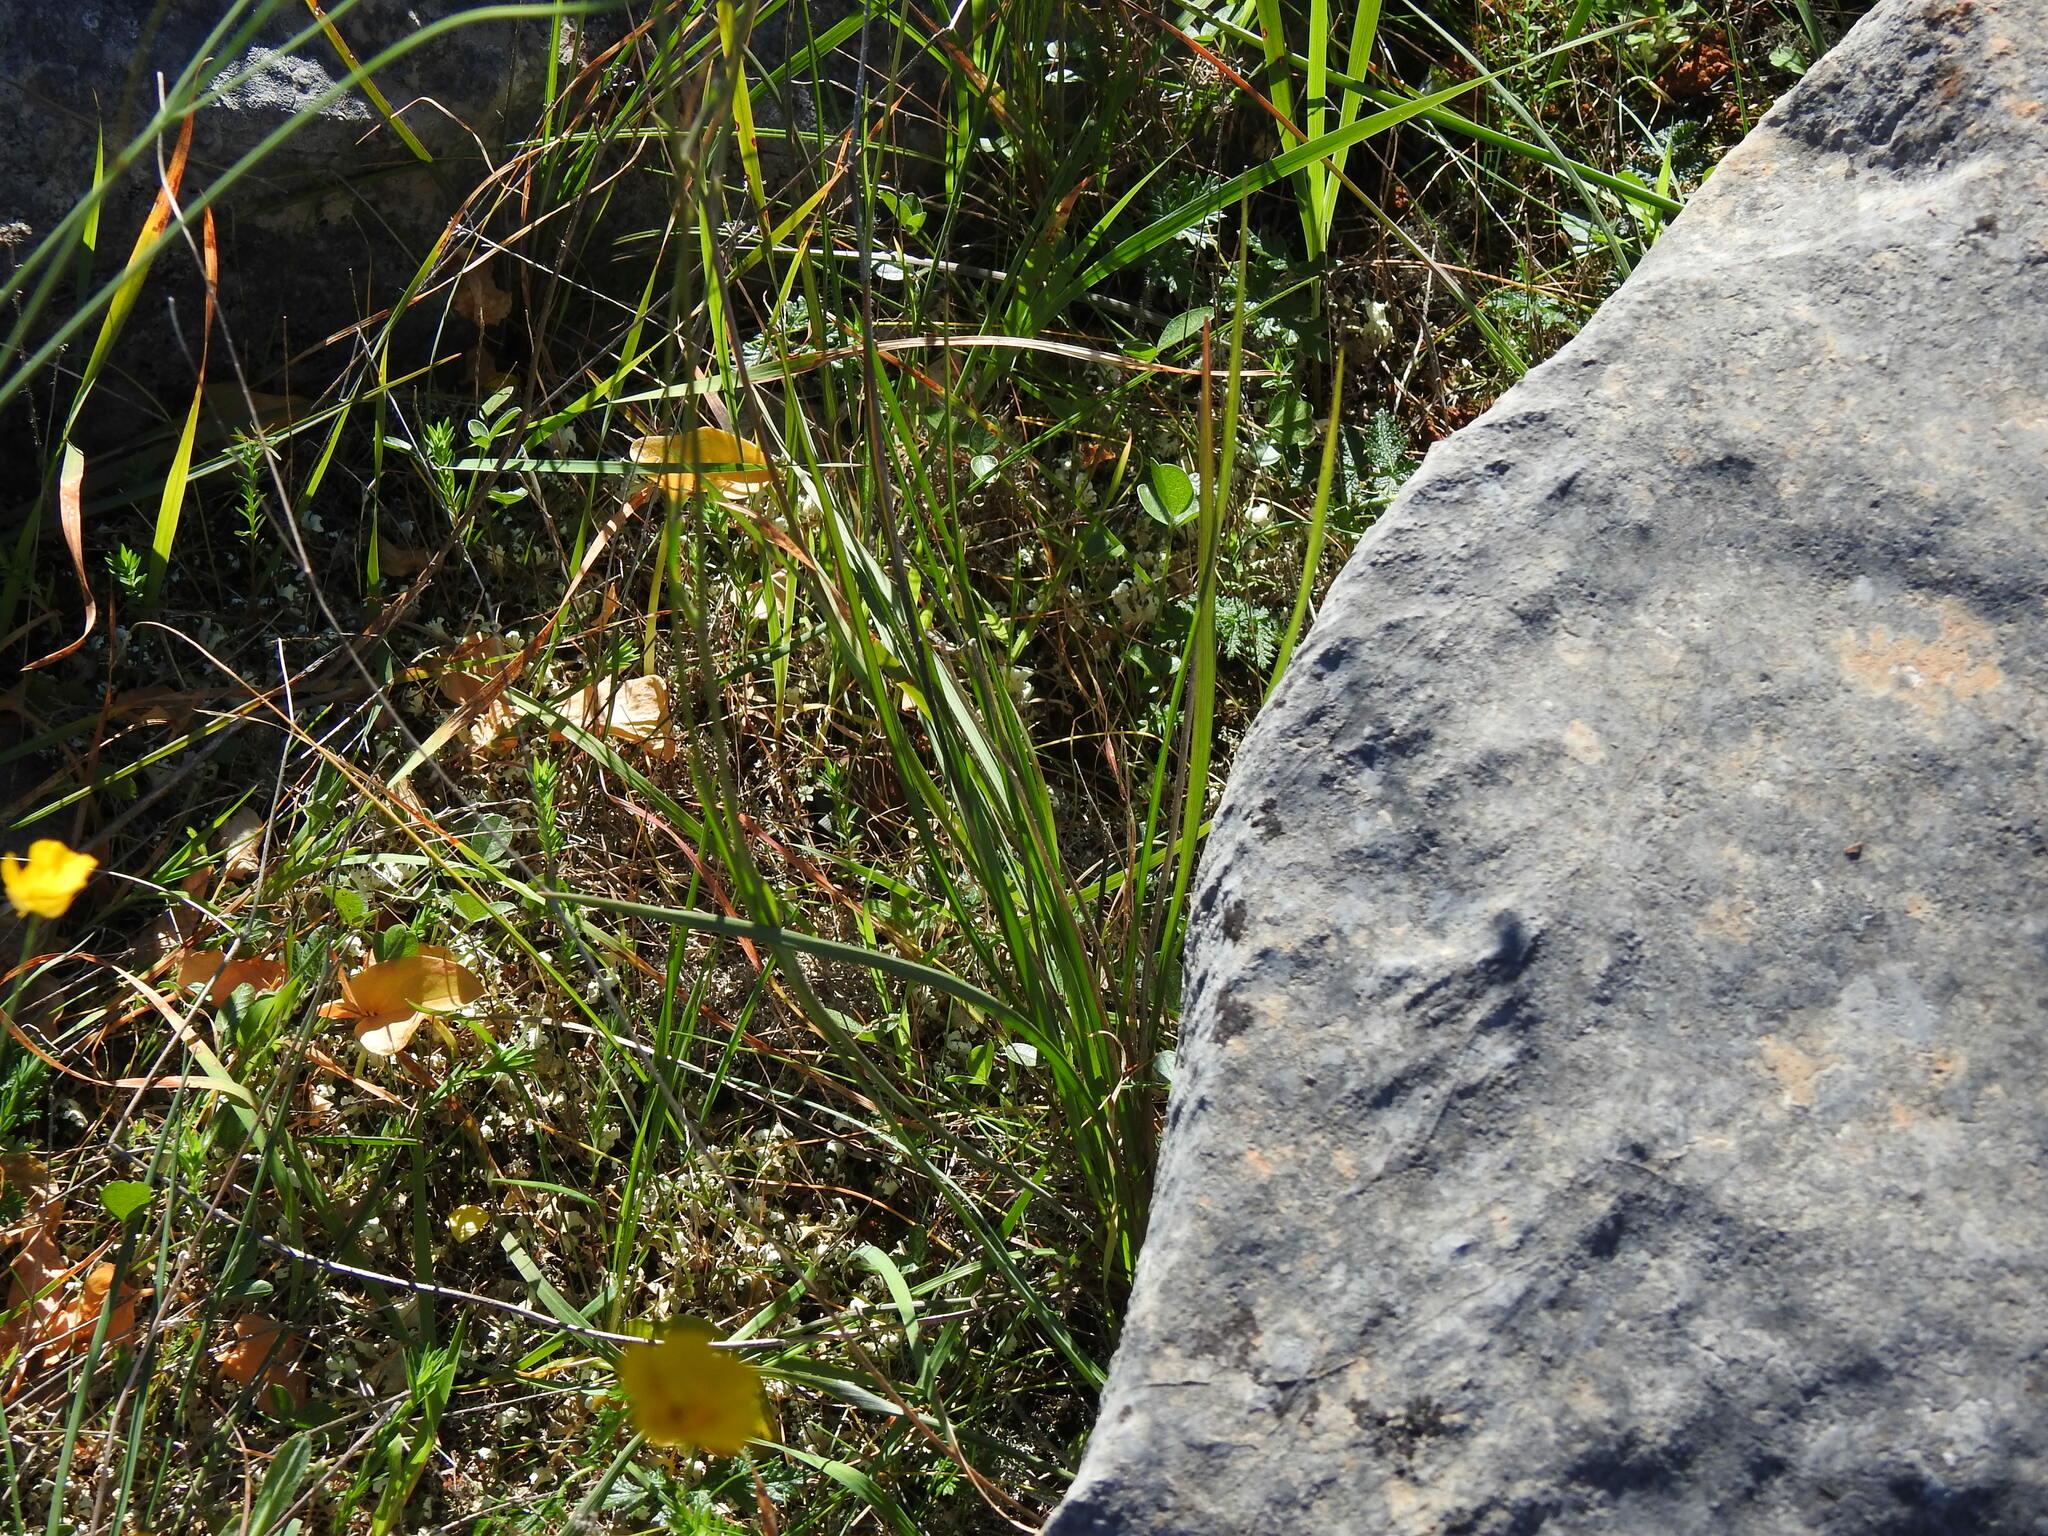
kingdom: Plantae
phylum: Tracheophyta
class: Magnoliopsida
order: Ranunculales
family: Ranunculaceae
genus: Ranunculus
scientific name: Ranunculus gramineus
